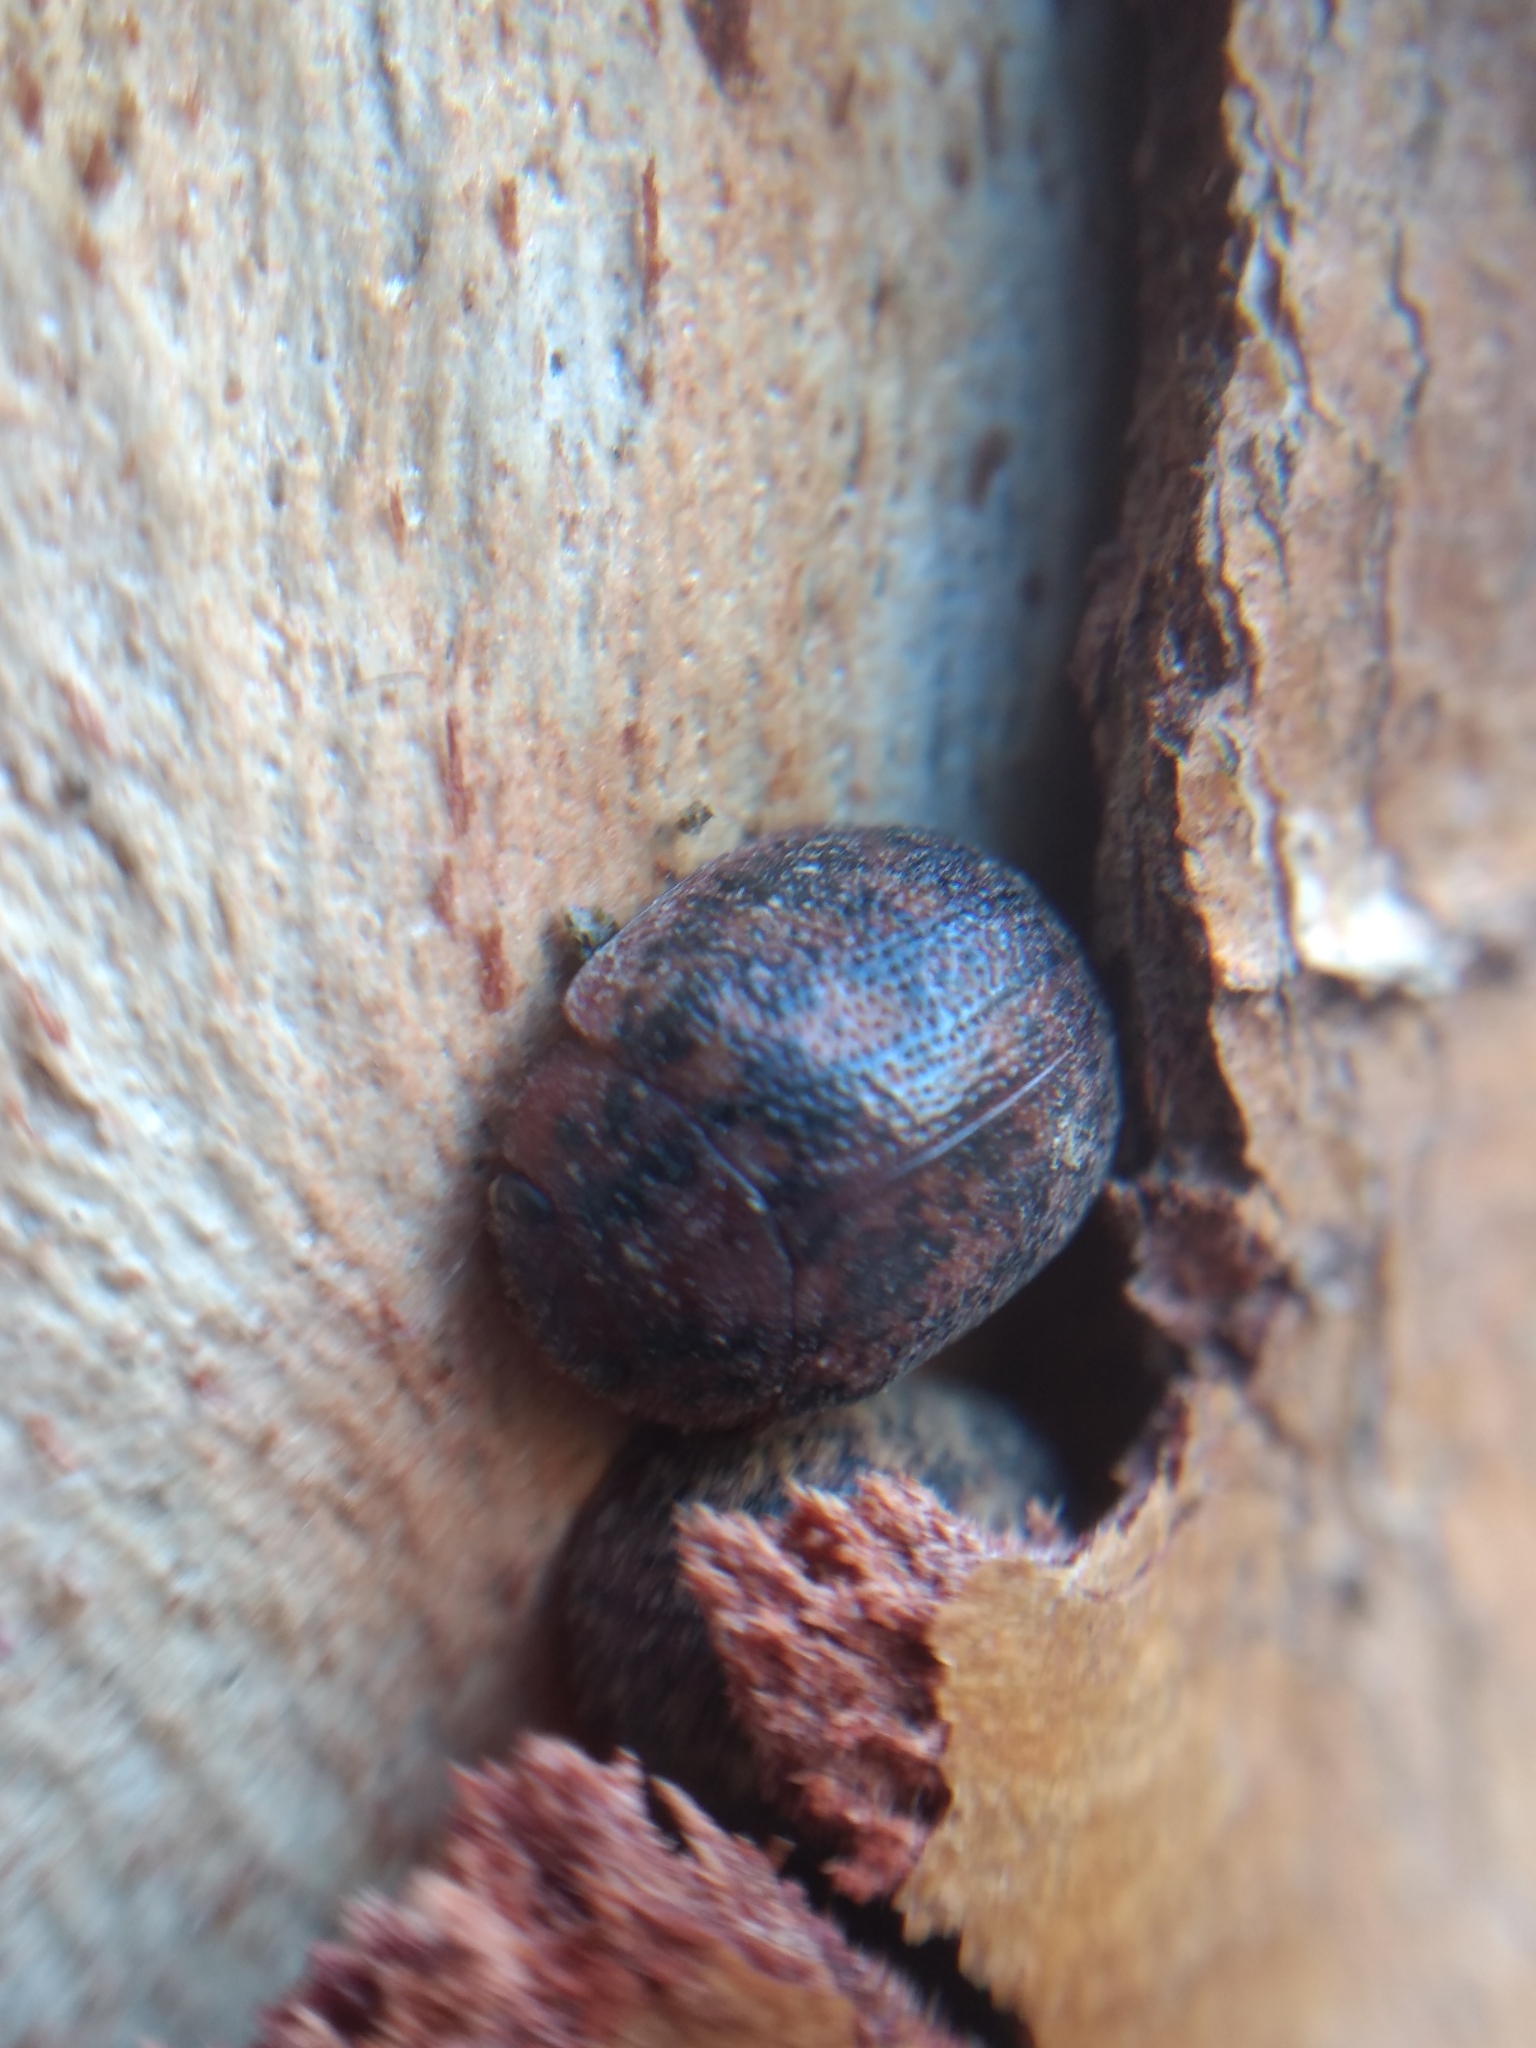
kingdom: Animalia
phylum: Arthropoda
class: Insecta
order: Coleoptera
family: Chrysomelidae
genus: Trachymela
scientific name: Trachymela sloanei
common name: Australian tortoise beetle
